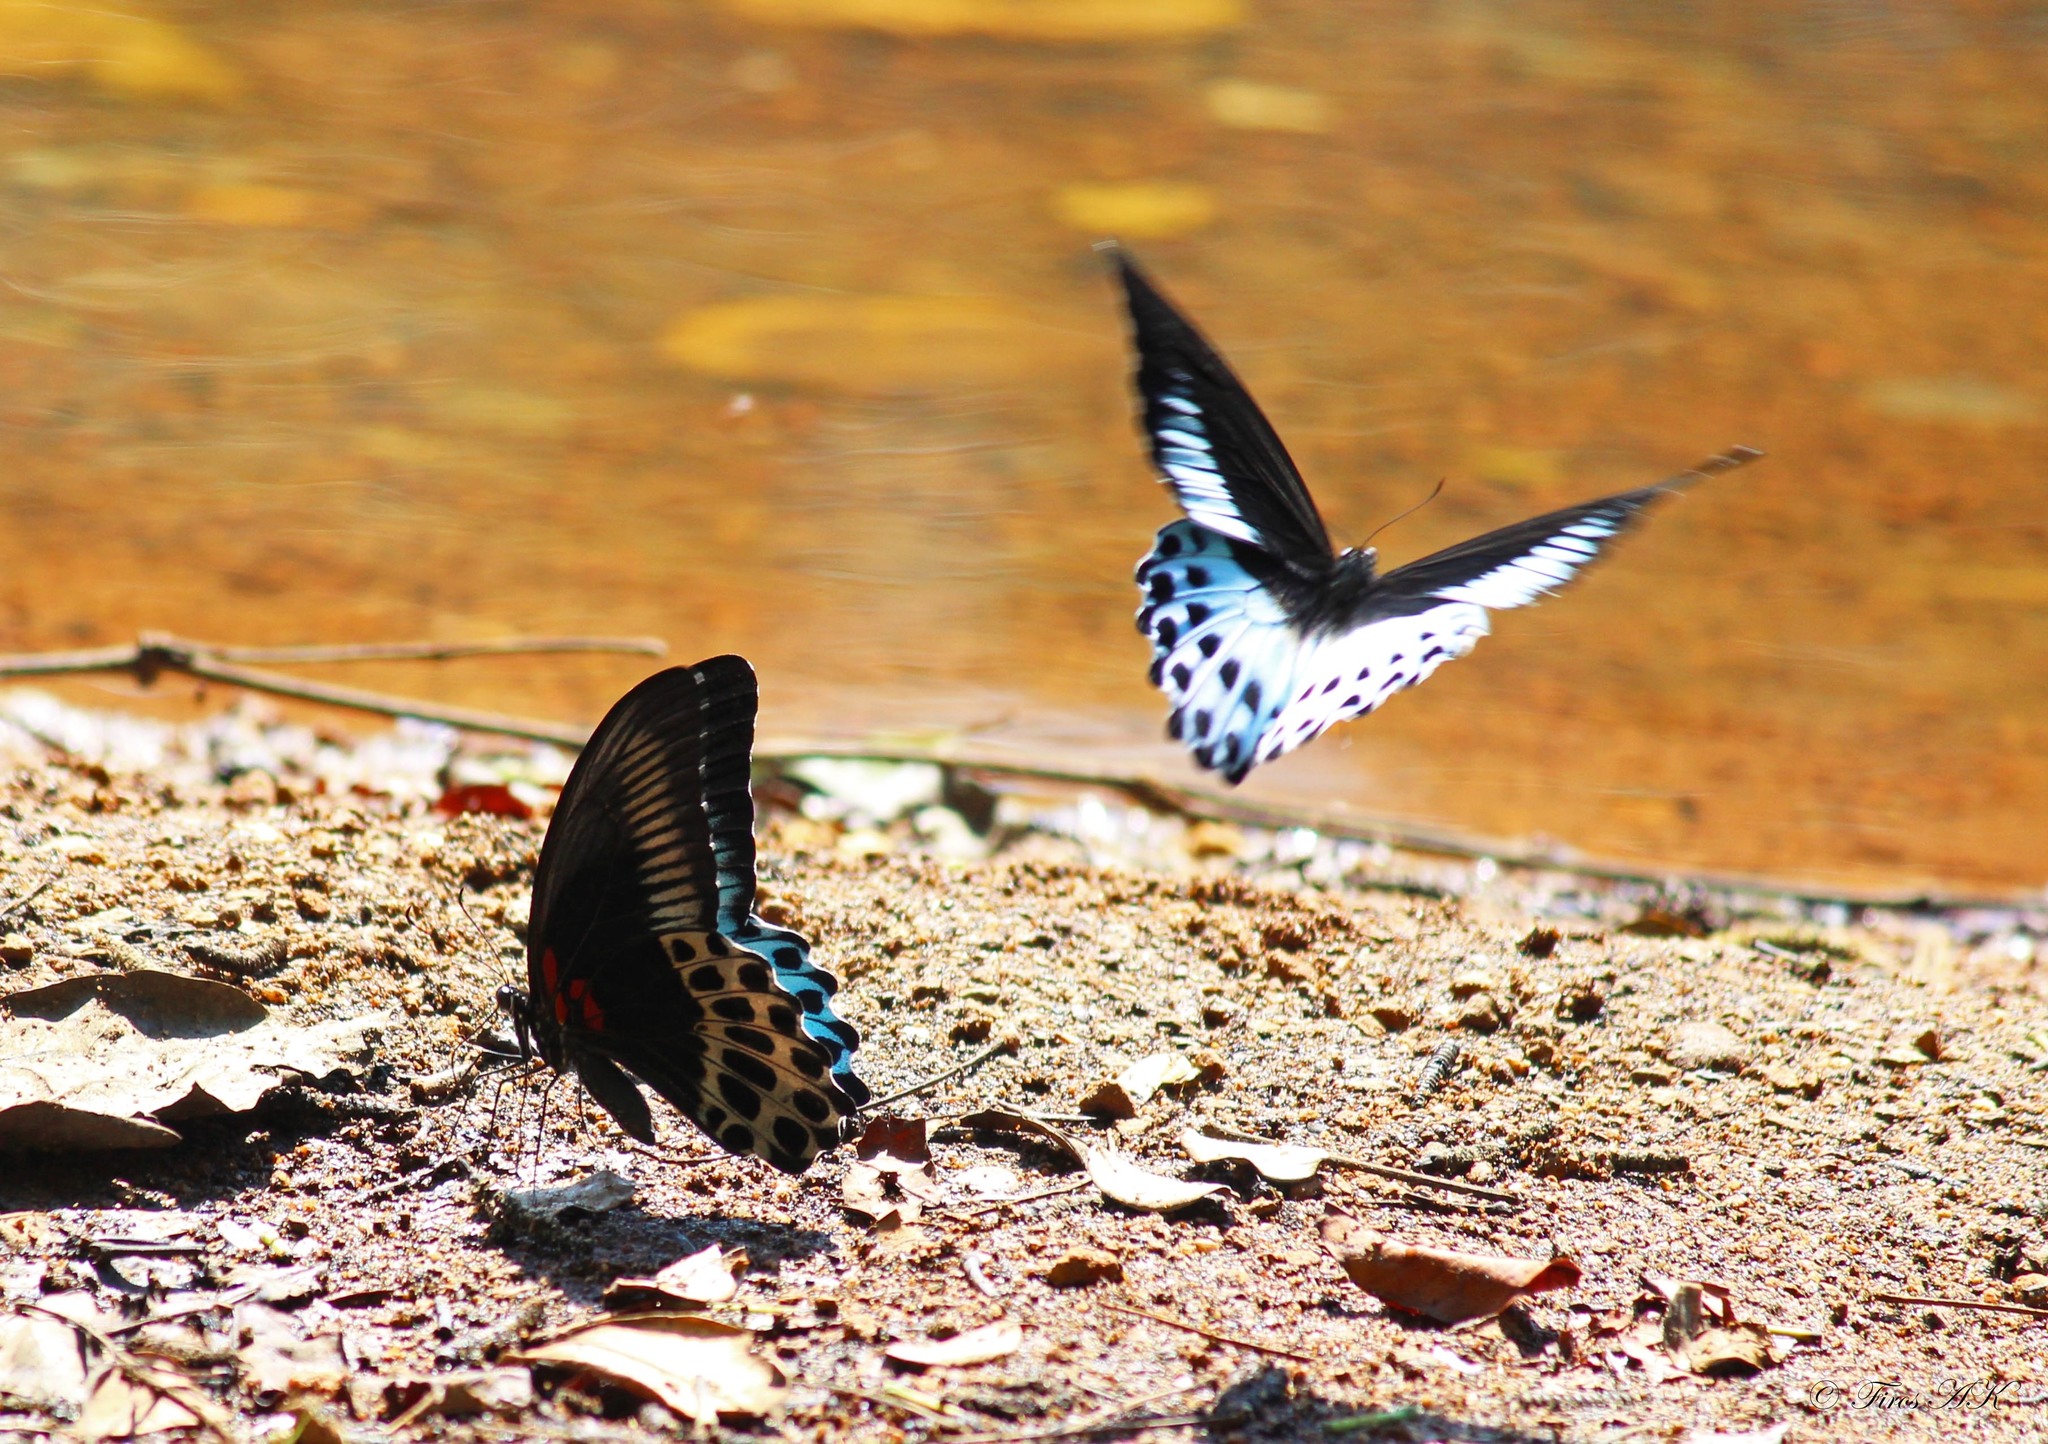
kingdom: Animalia
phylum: Arthropoda
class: Insecta
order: Lepidoptera
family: Papilionidae
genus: Papilio
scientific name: Papilio memnon
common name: Great mormon
